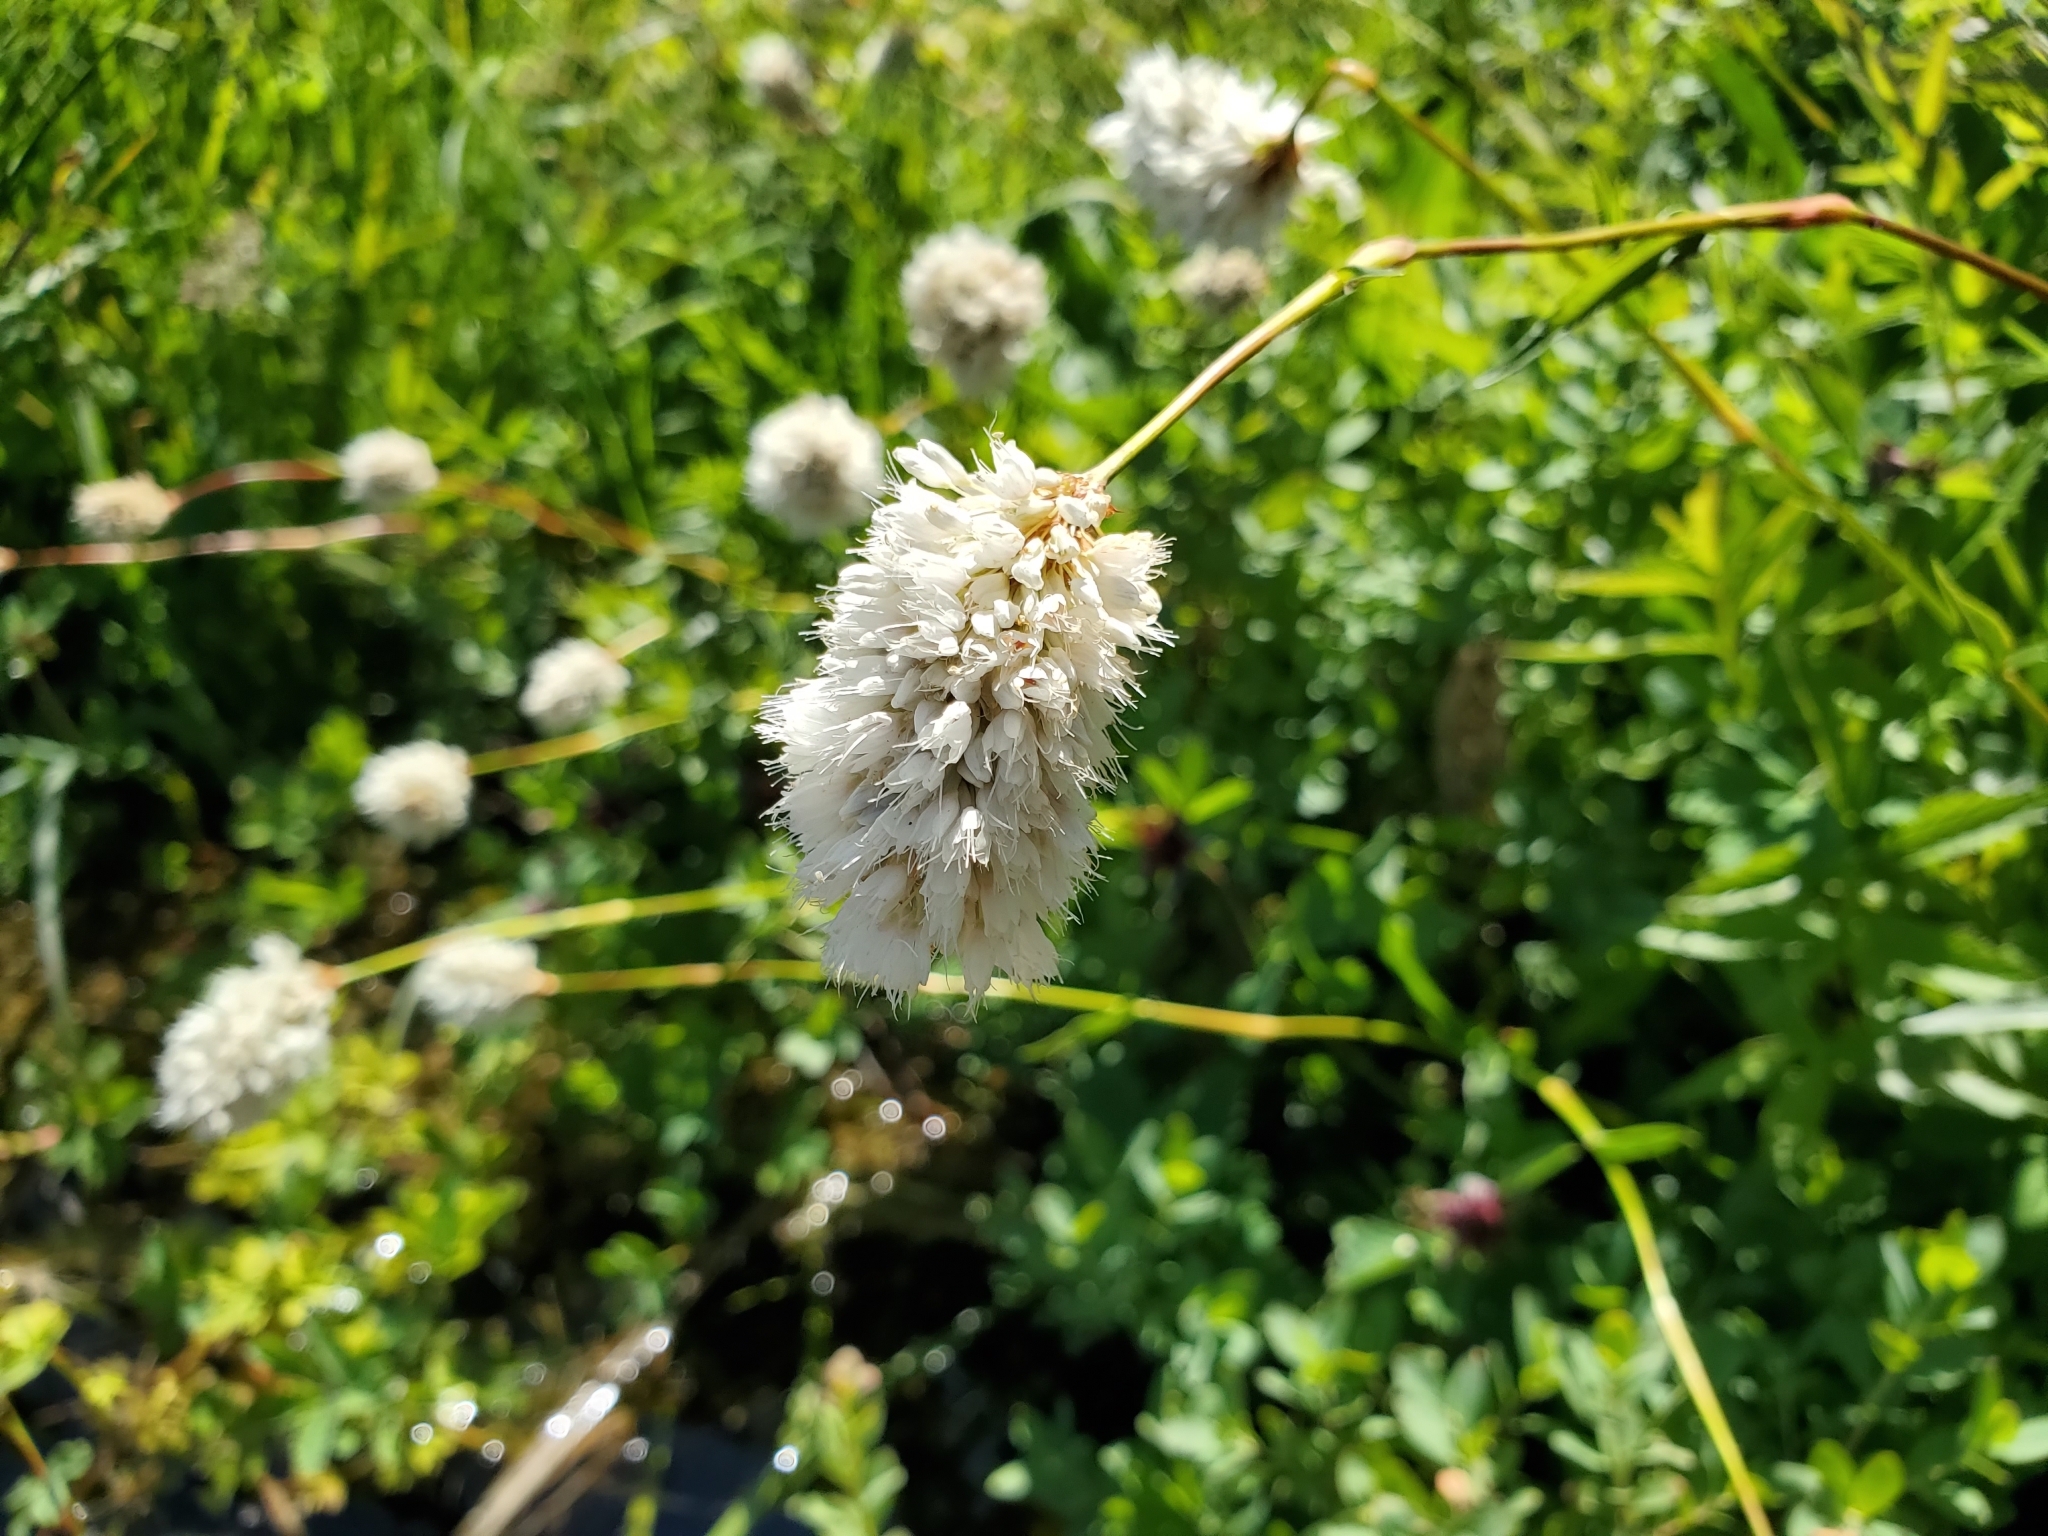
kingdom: Plantae
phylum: Tracheophyta
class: Magnoliopsida
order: Caryophyllales
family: Polygonaceae
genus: Bistorta
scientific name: Bistorta bistortoides
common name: American bistort
